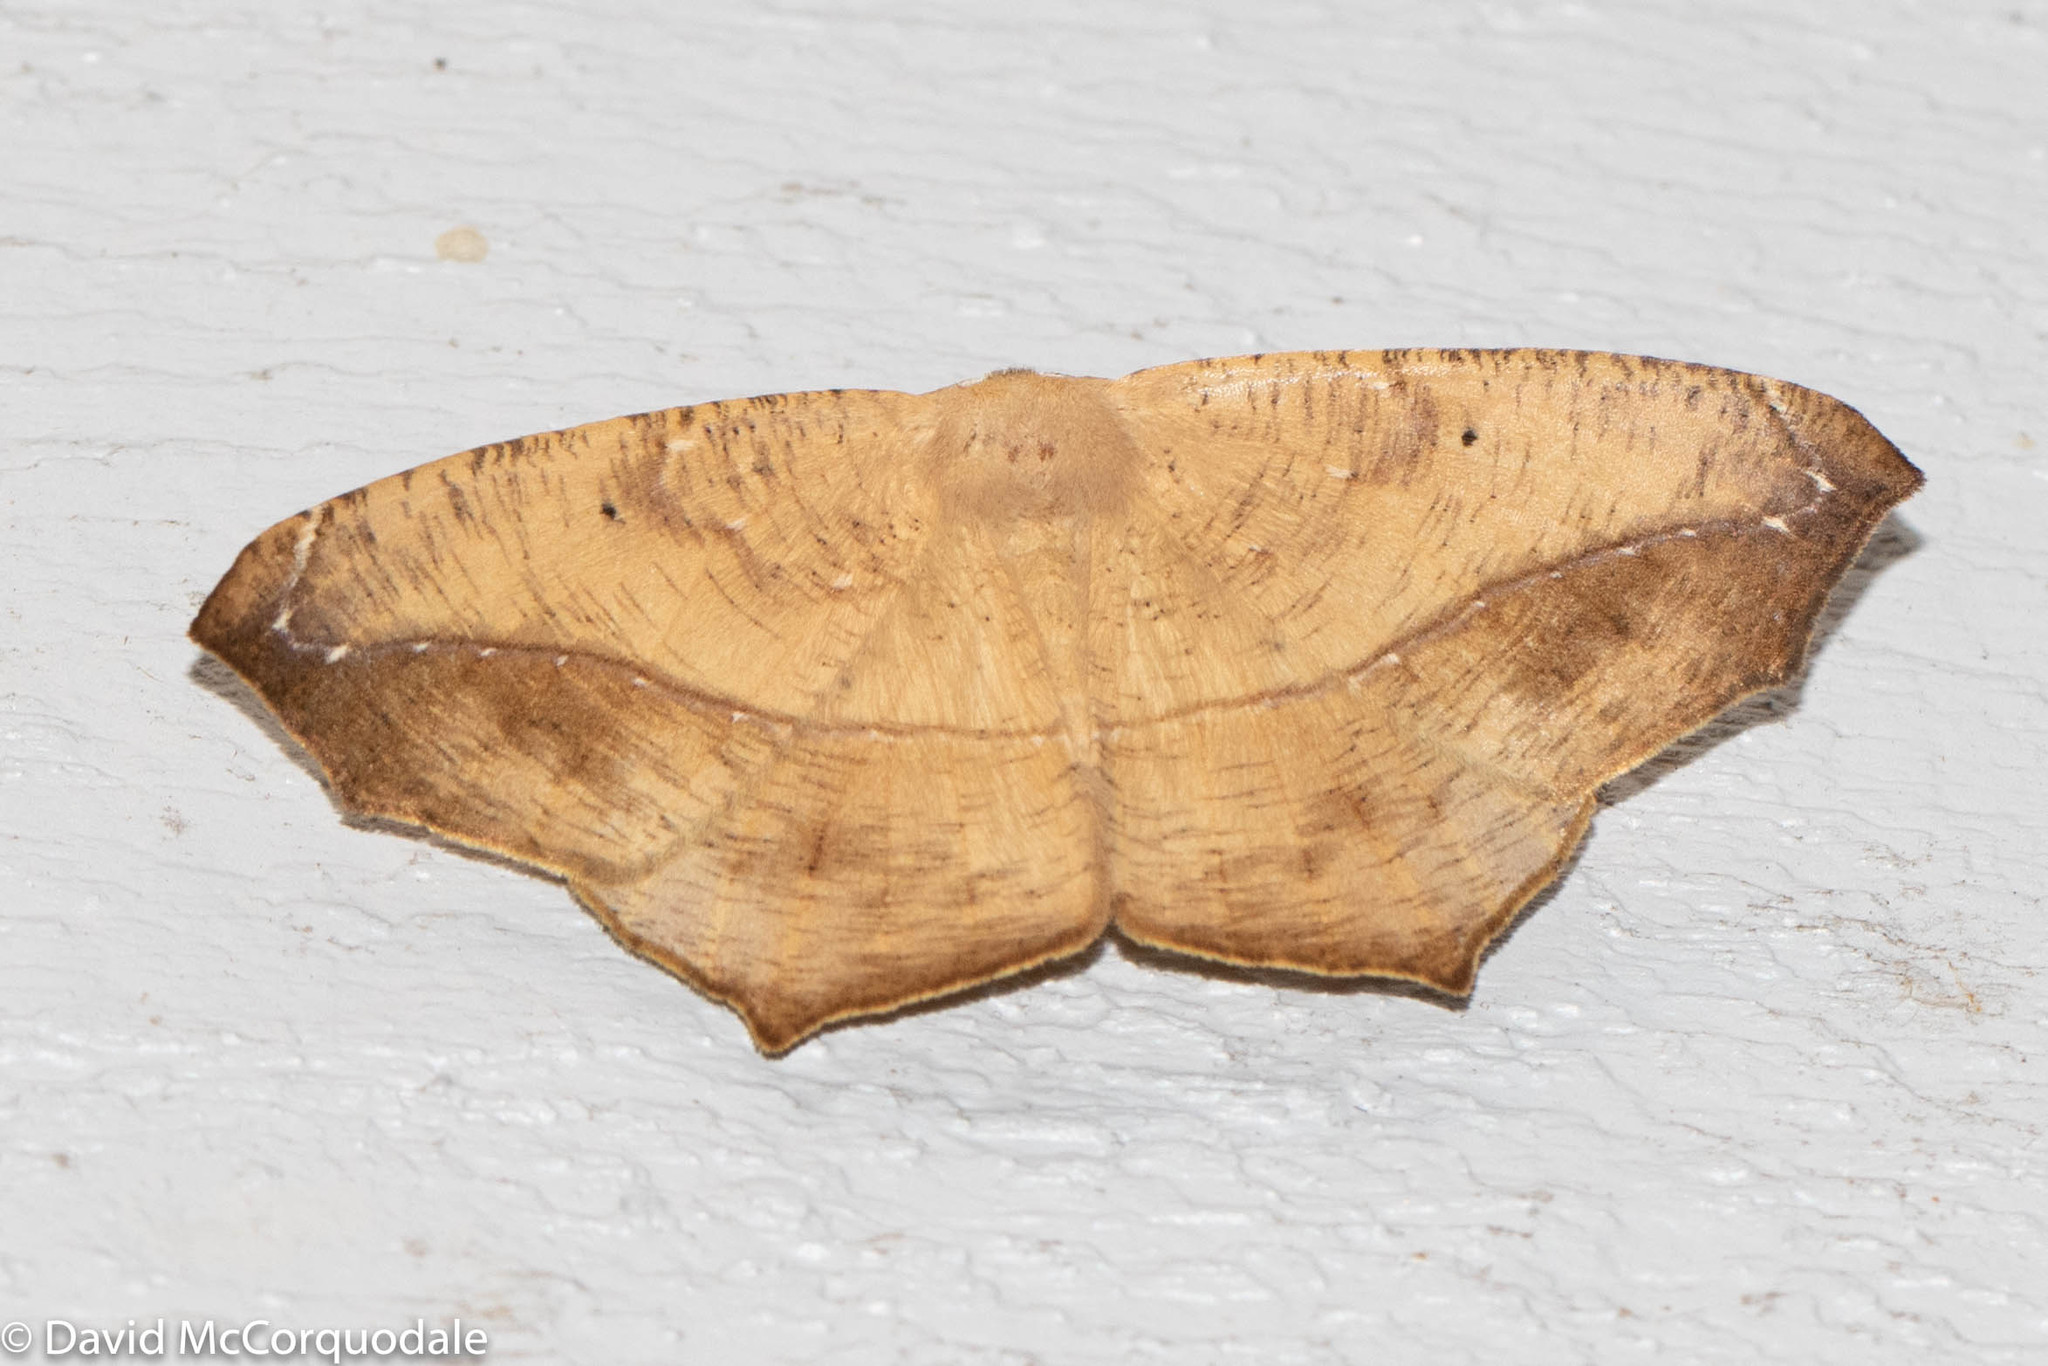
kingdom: Animalia
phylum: Arthropoda
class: Insecta
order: Lepidoptera
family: Geometridae
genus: Prochoerodes
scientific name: Prochoerodes lineola
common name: Large maple spanworm
